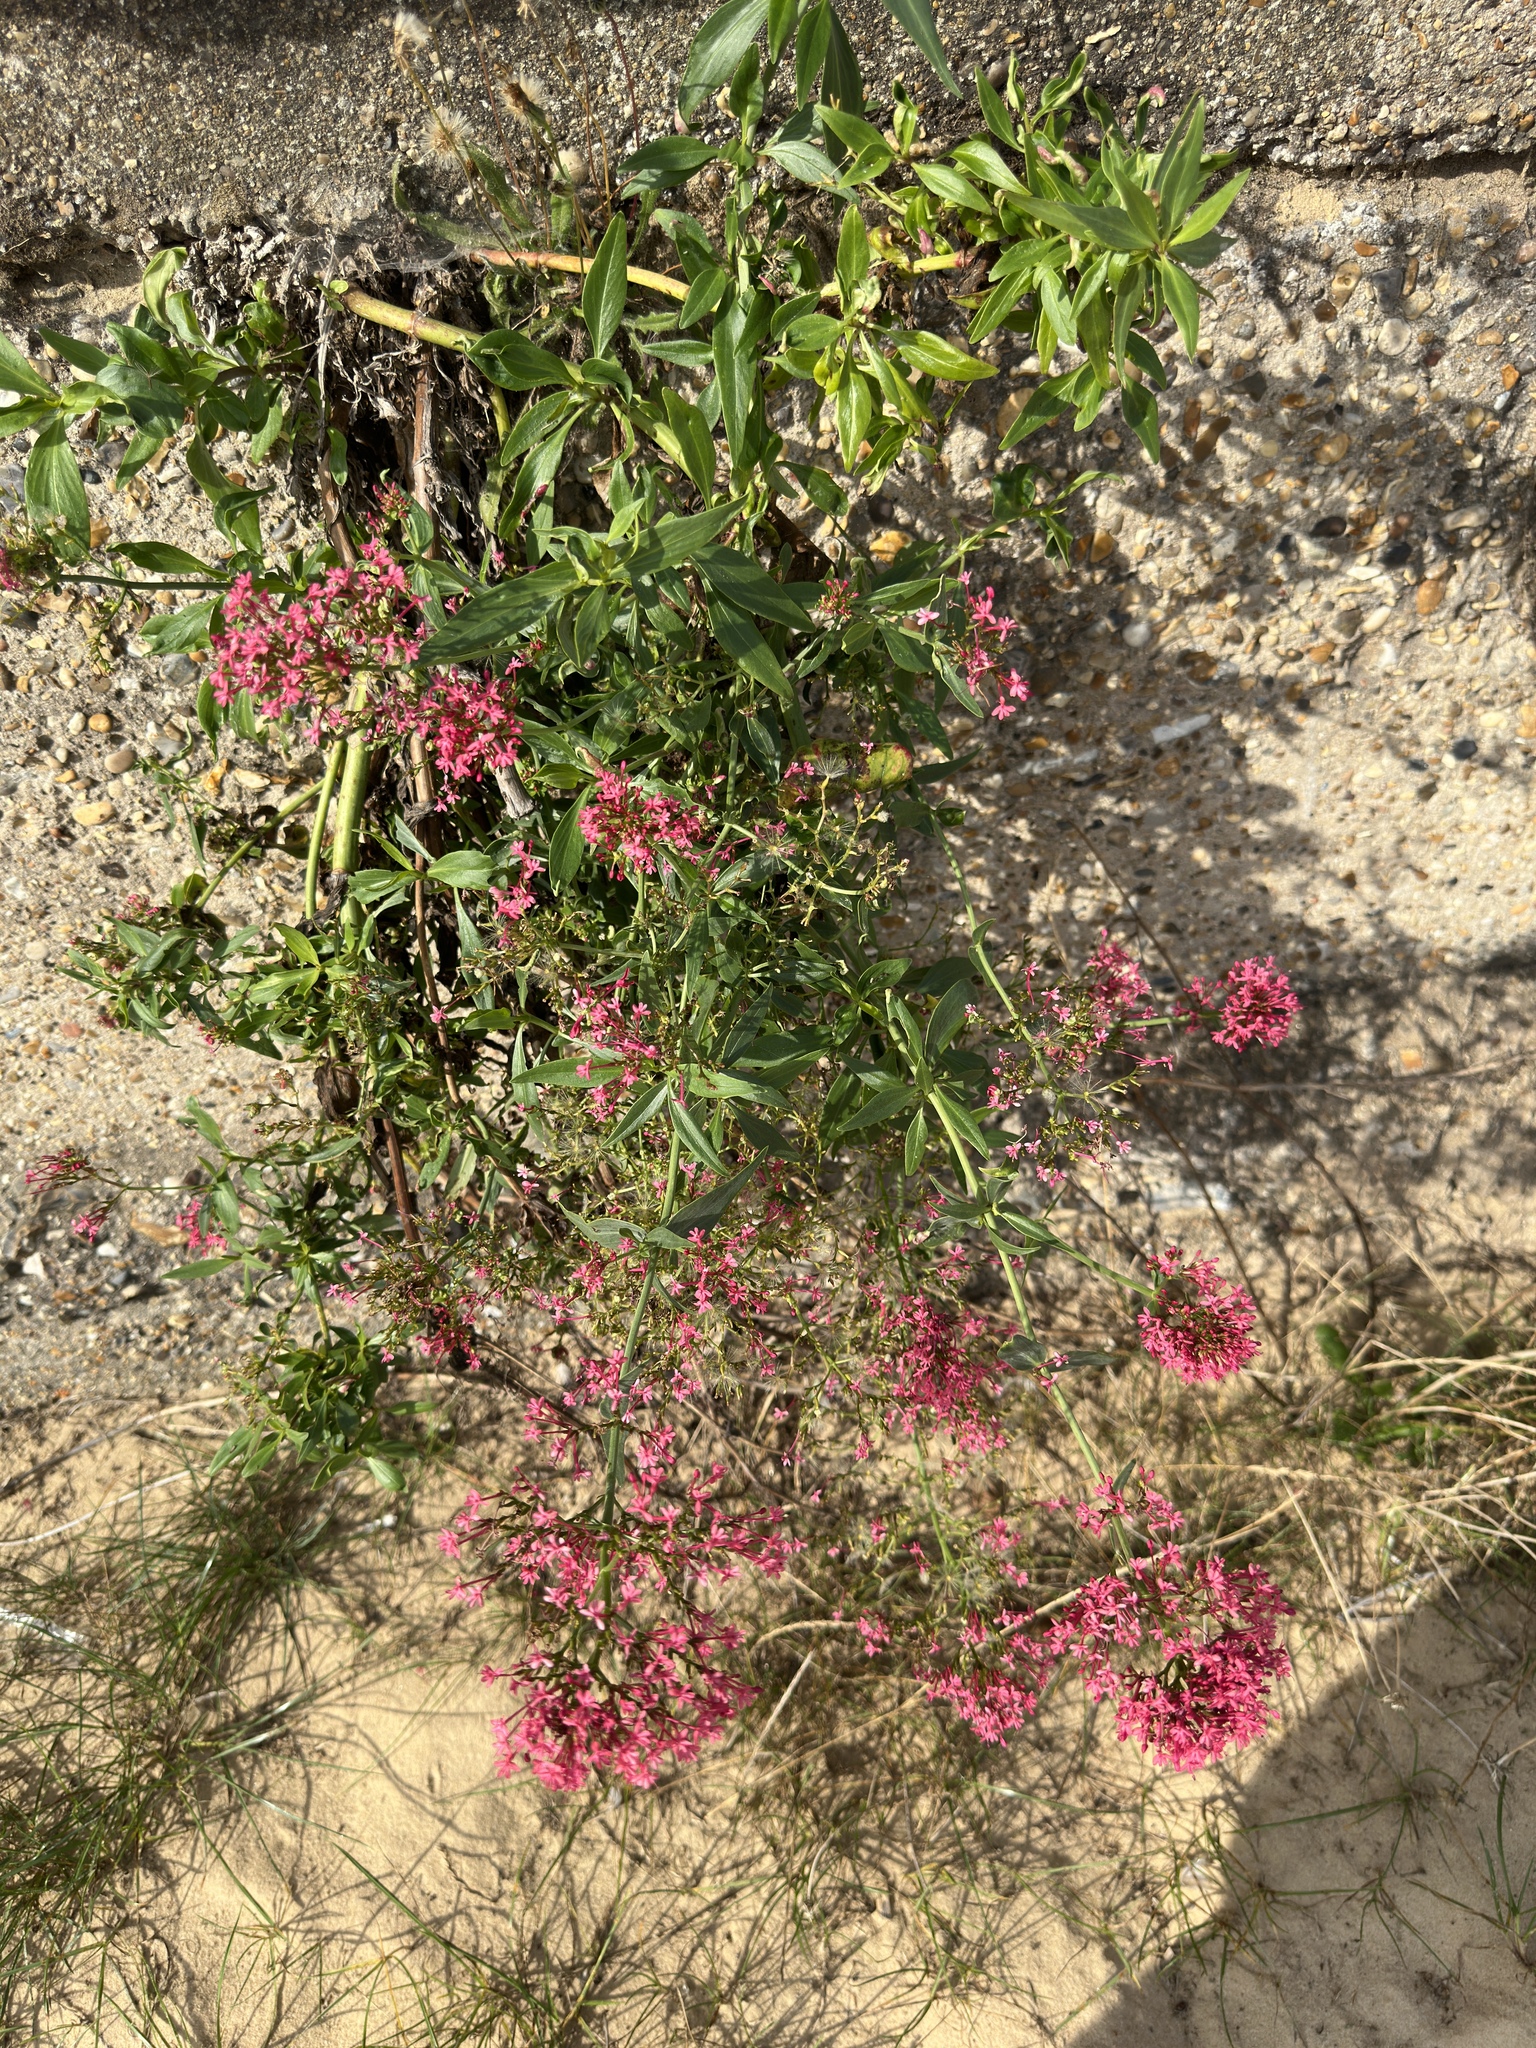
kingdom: Plantae
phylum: Tracheophyta
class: Magnoliopsida
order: Dipsacales
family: Caprifoliaceae
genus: Centranthus
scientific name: Centranthus ruber
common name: Red valerian
